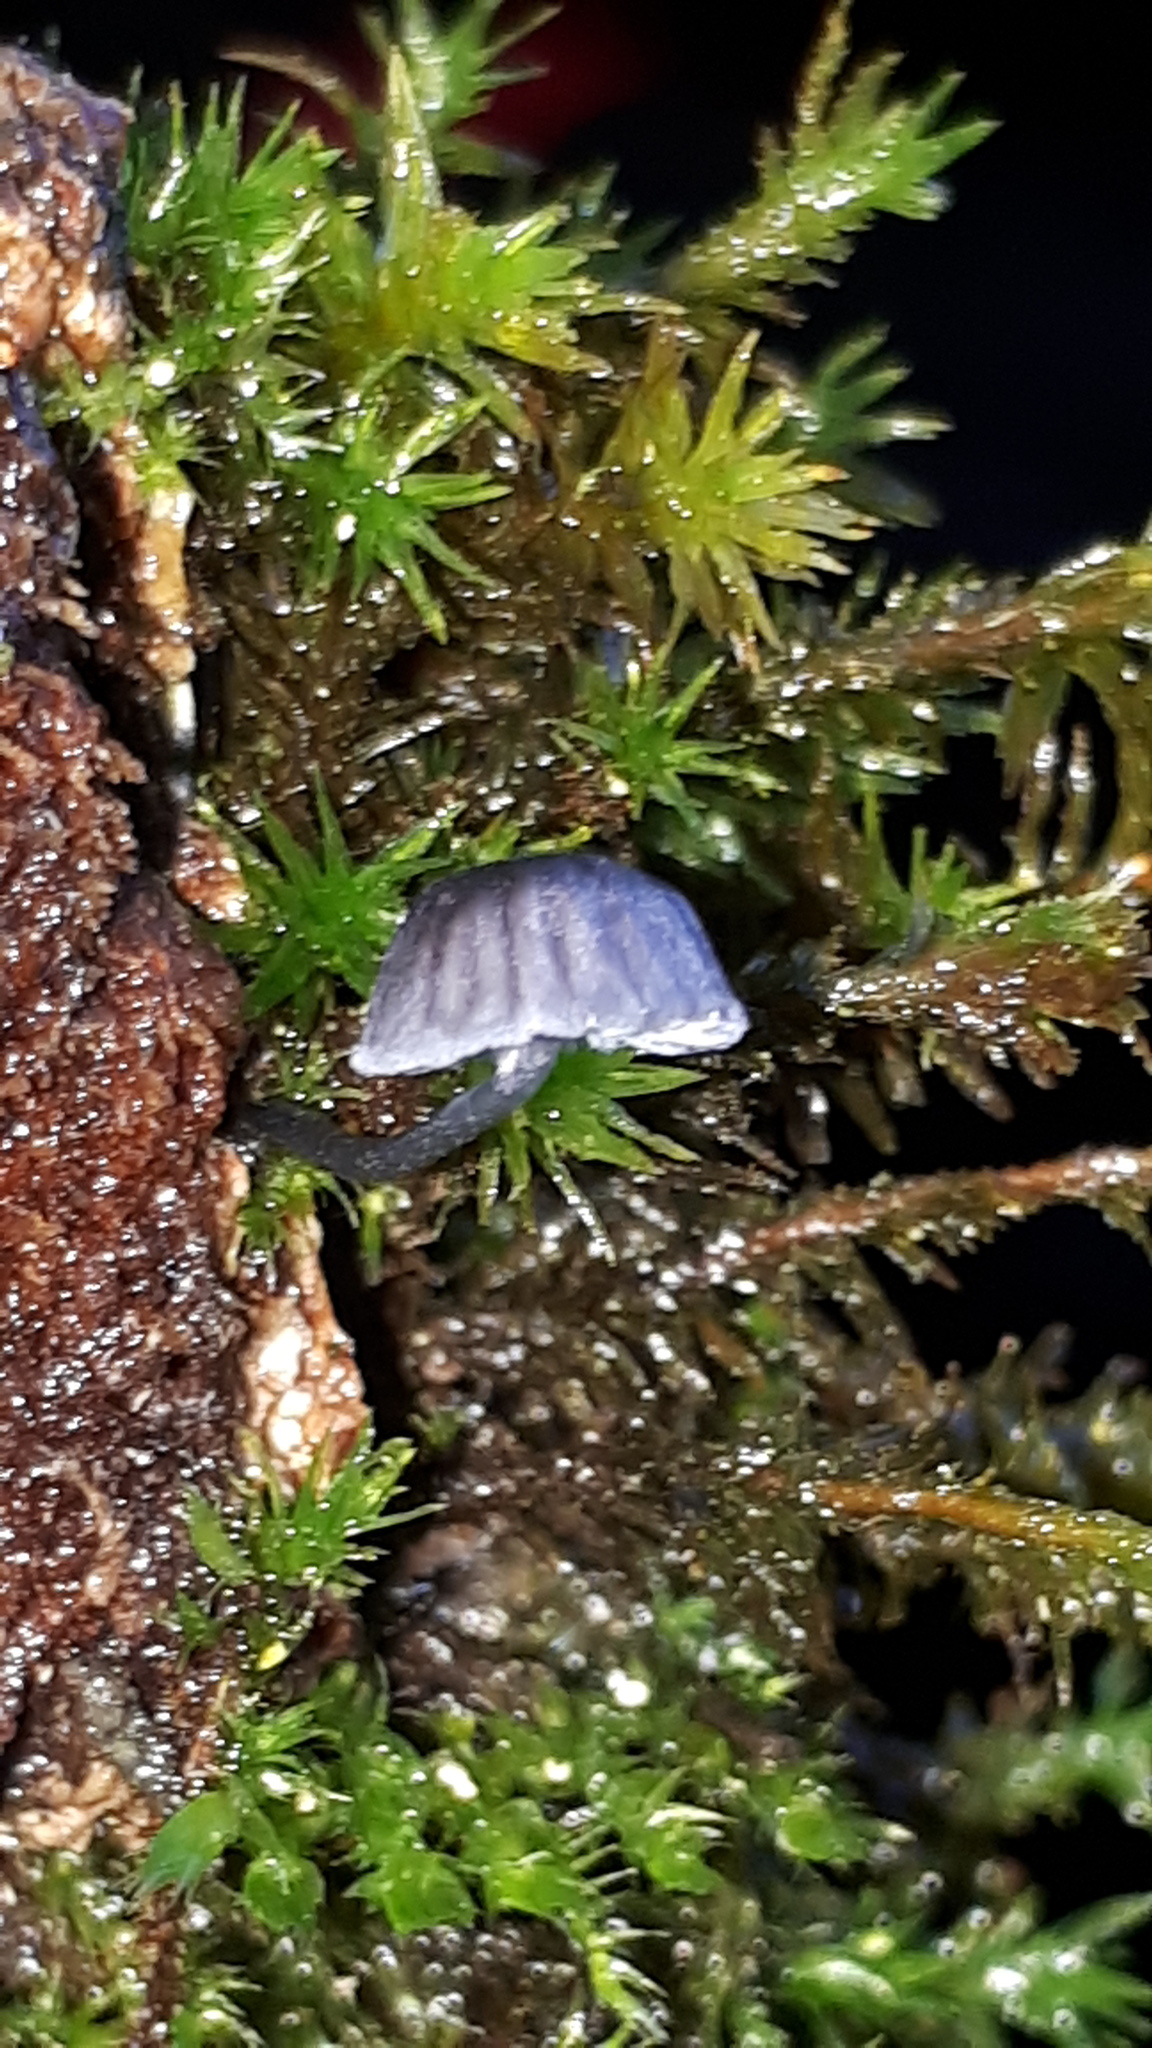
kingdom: Fungi
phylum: Basidiomycota
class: Agaricomycetes
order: Agaricales
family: Mycenaceae
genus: Mycena
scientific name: Mycena pseudocorticola
